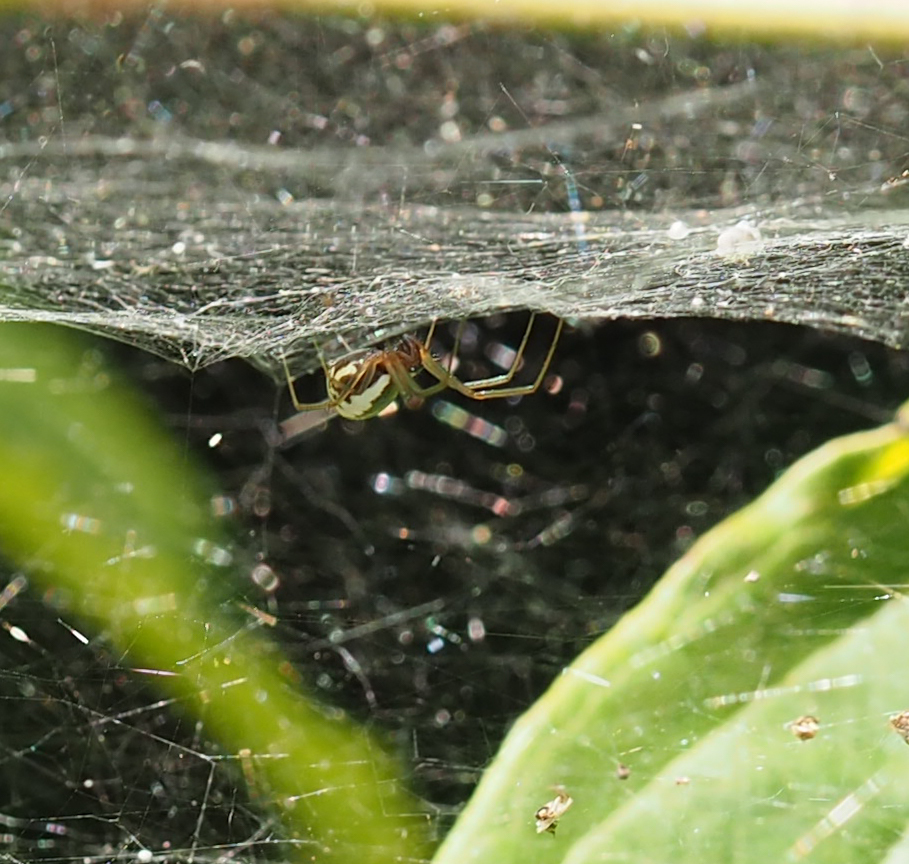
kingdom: Animalia
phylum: Arthropoda
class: Arachnida
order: Araneae
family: Linyphiidae
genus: Frontinella
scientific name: Frontinella pyramitela
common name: Bowl-and-doily spider
